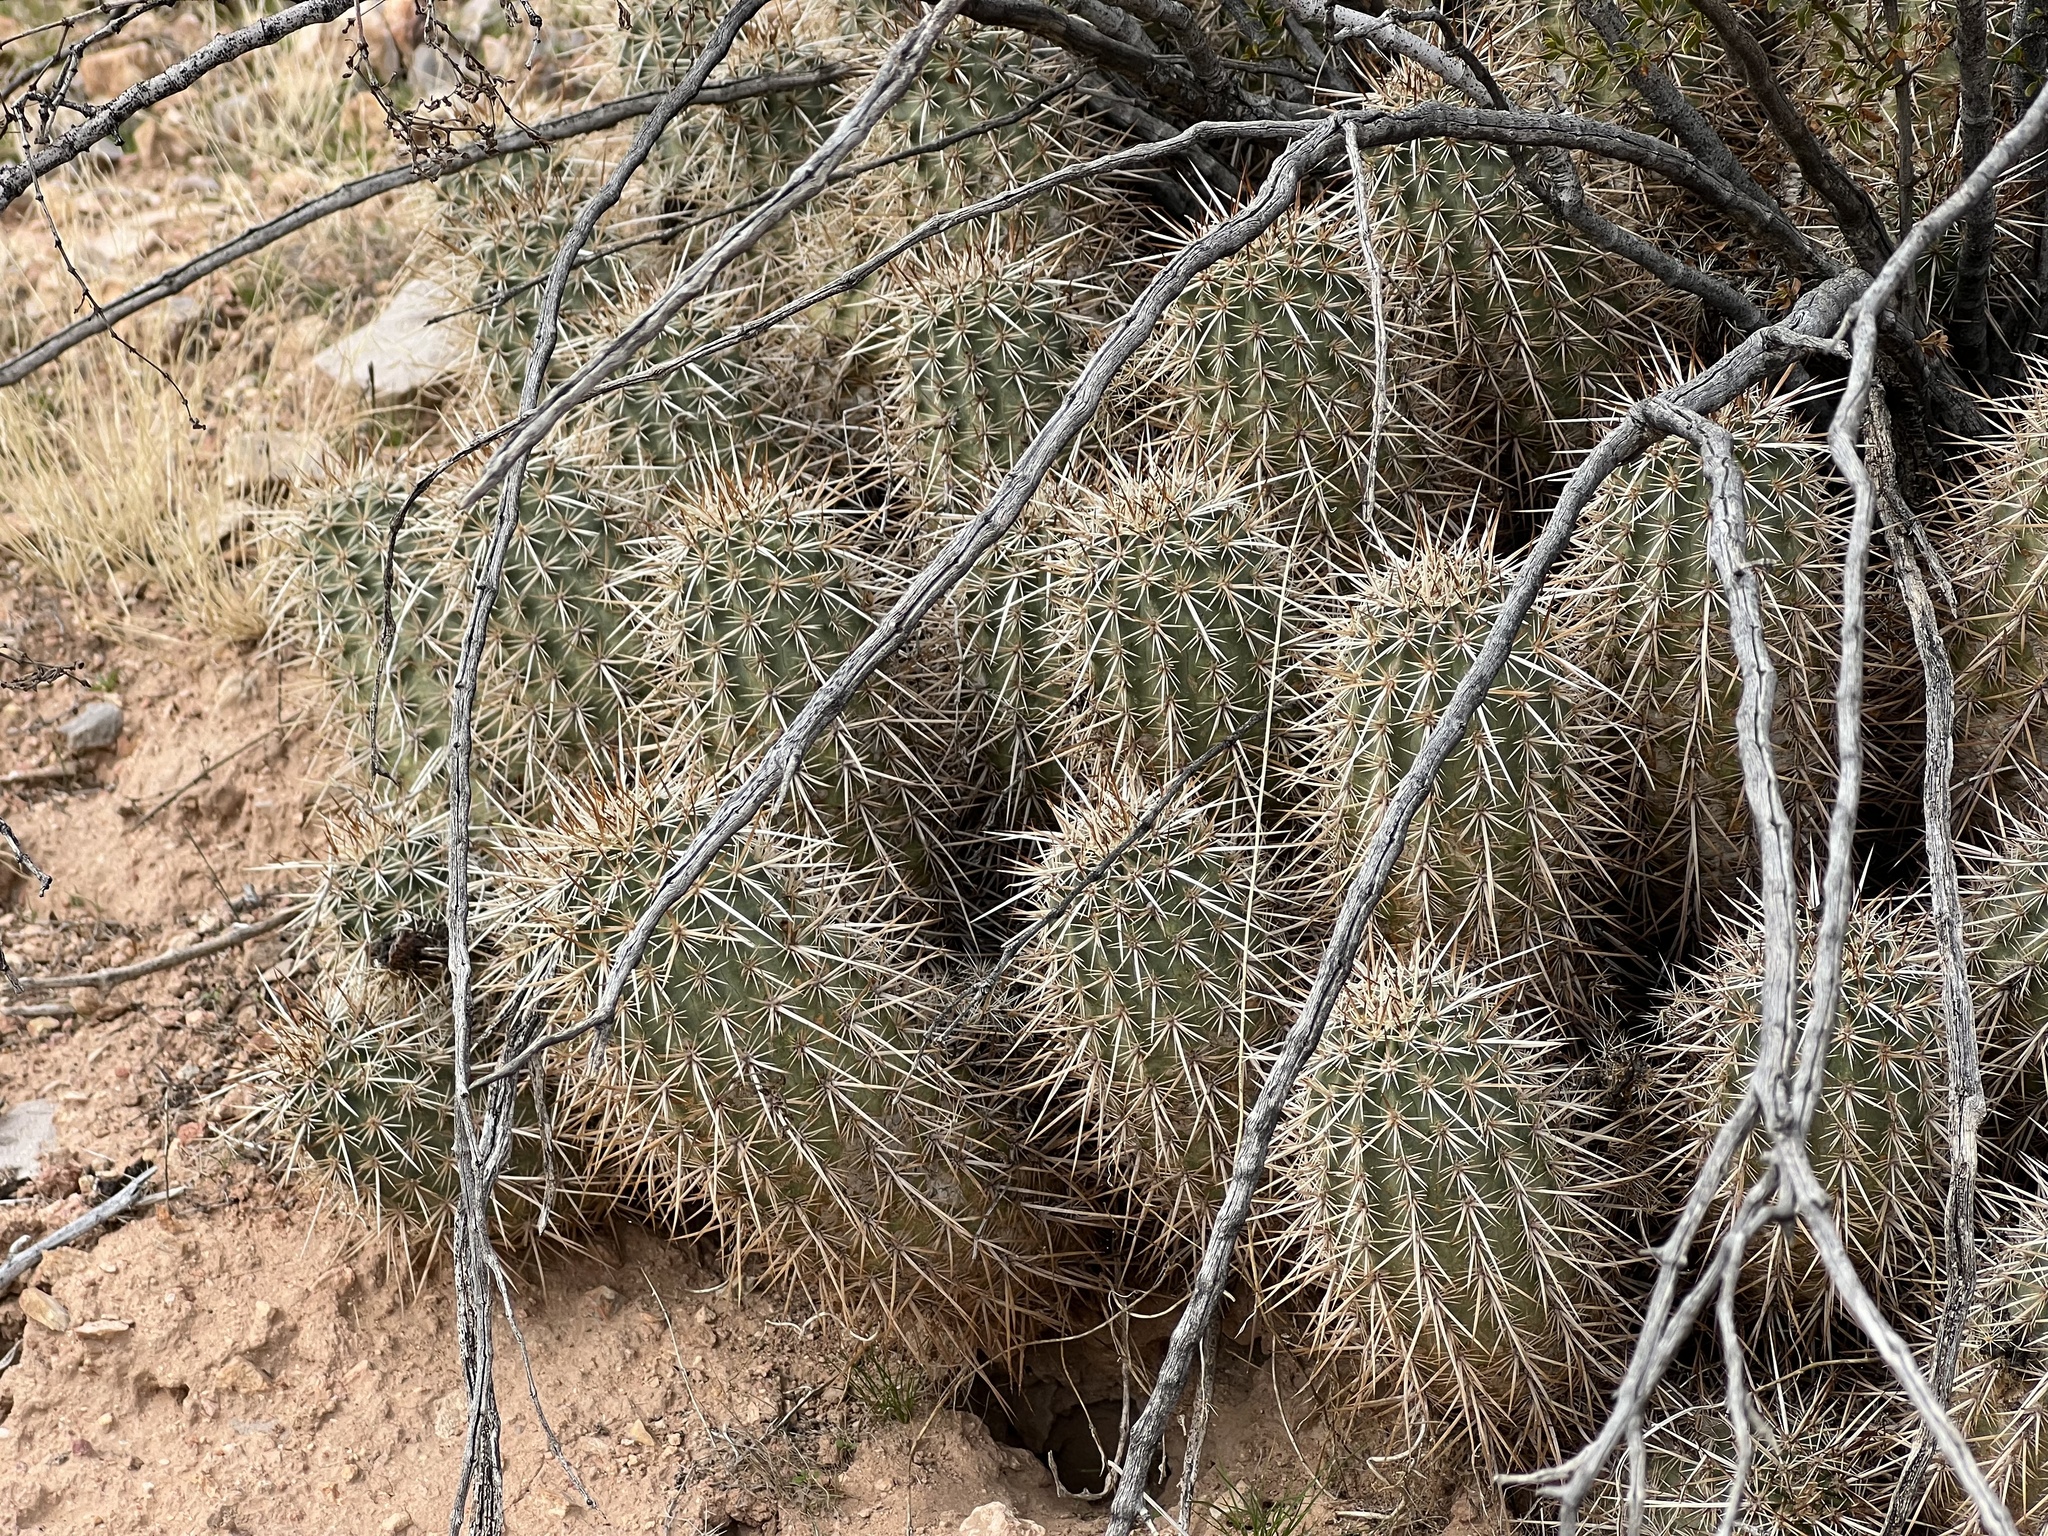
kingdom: Plantae
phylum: Tracheophyta
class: Magnoliopsida
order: Caryophyllales
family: Cactaceae
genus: Echinocereus
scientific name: Echinocereus engelmannii
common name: Engelmann's hedgehog cactus
